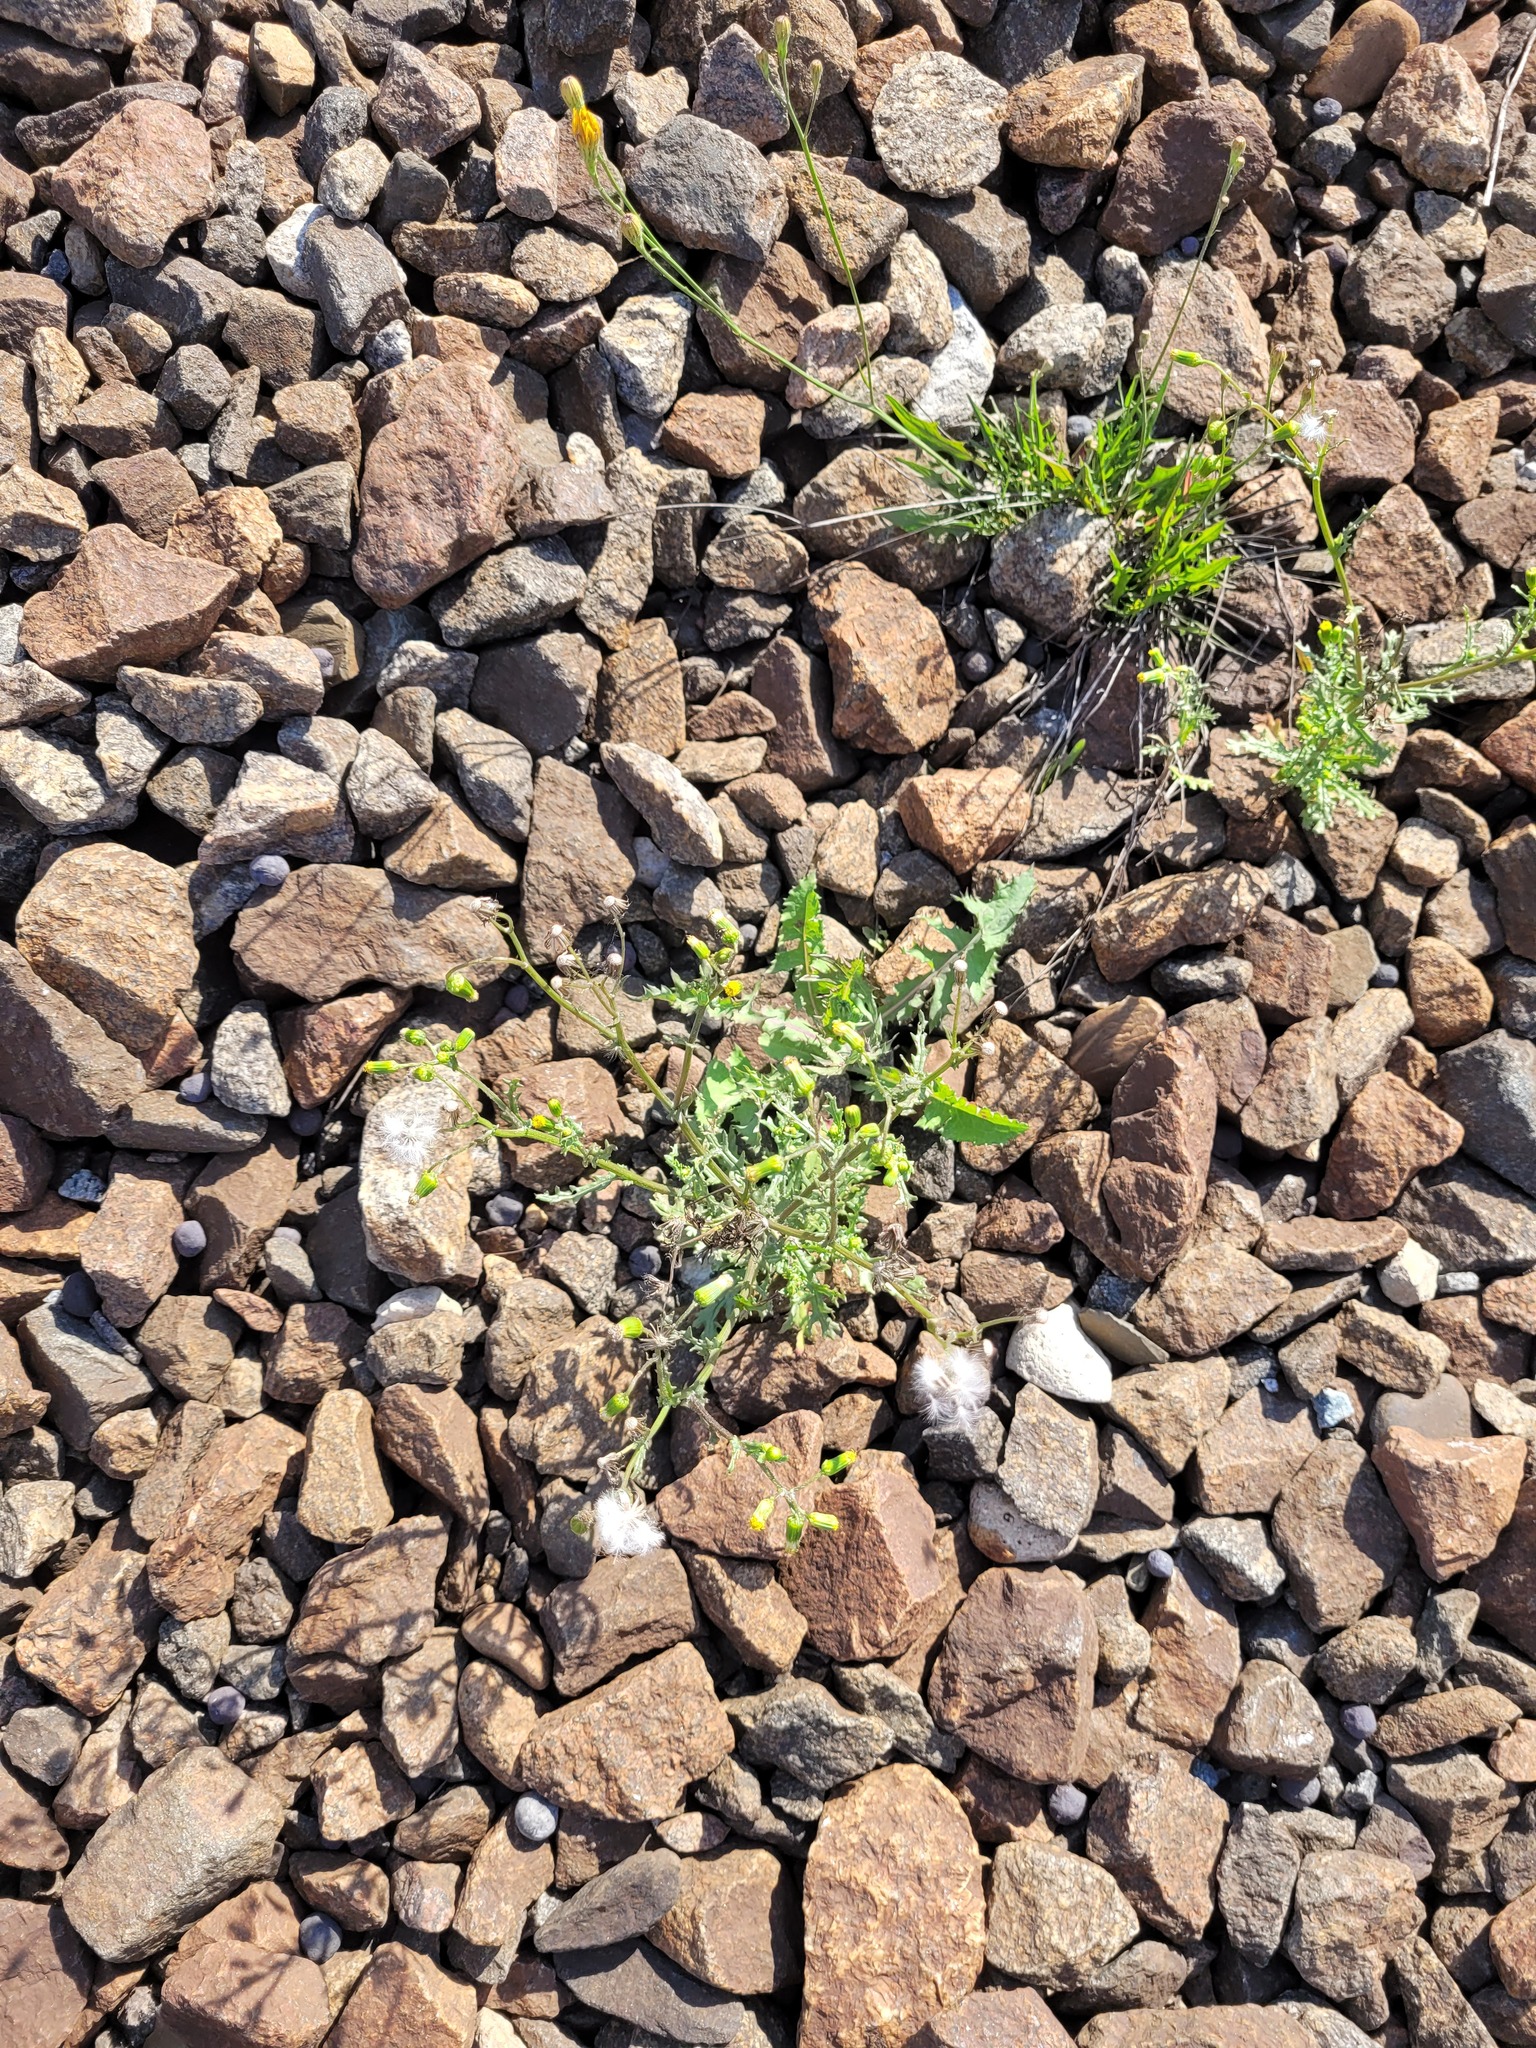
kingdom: Plantae
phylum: Tracheophyta
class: Magnoliopsida
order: Asterales
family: Asteraceae
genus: Senecio
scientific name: Senecio vulgaris
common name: Old-man-in-the-spring
